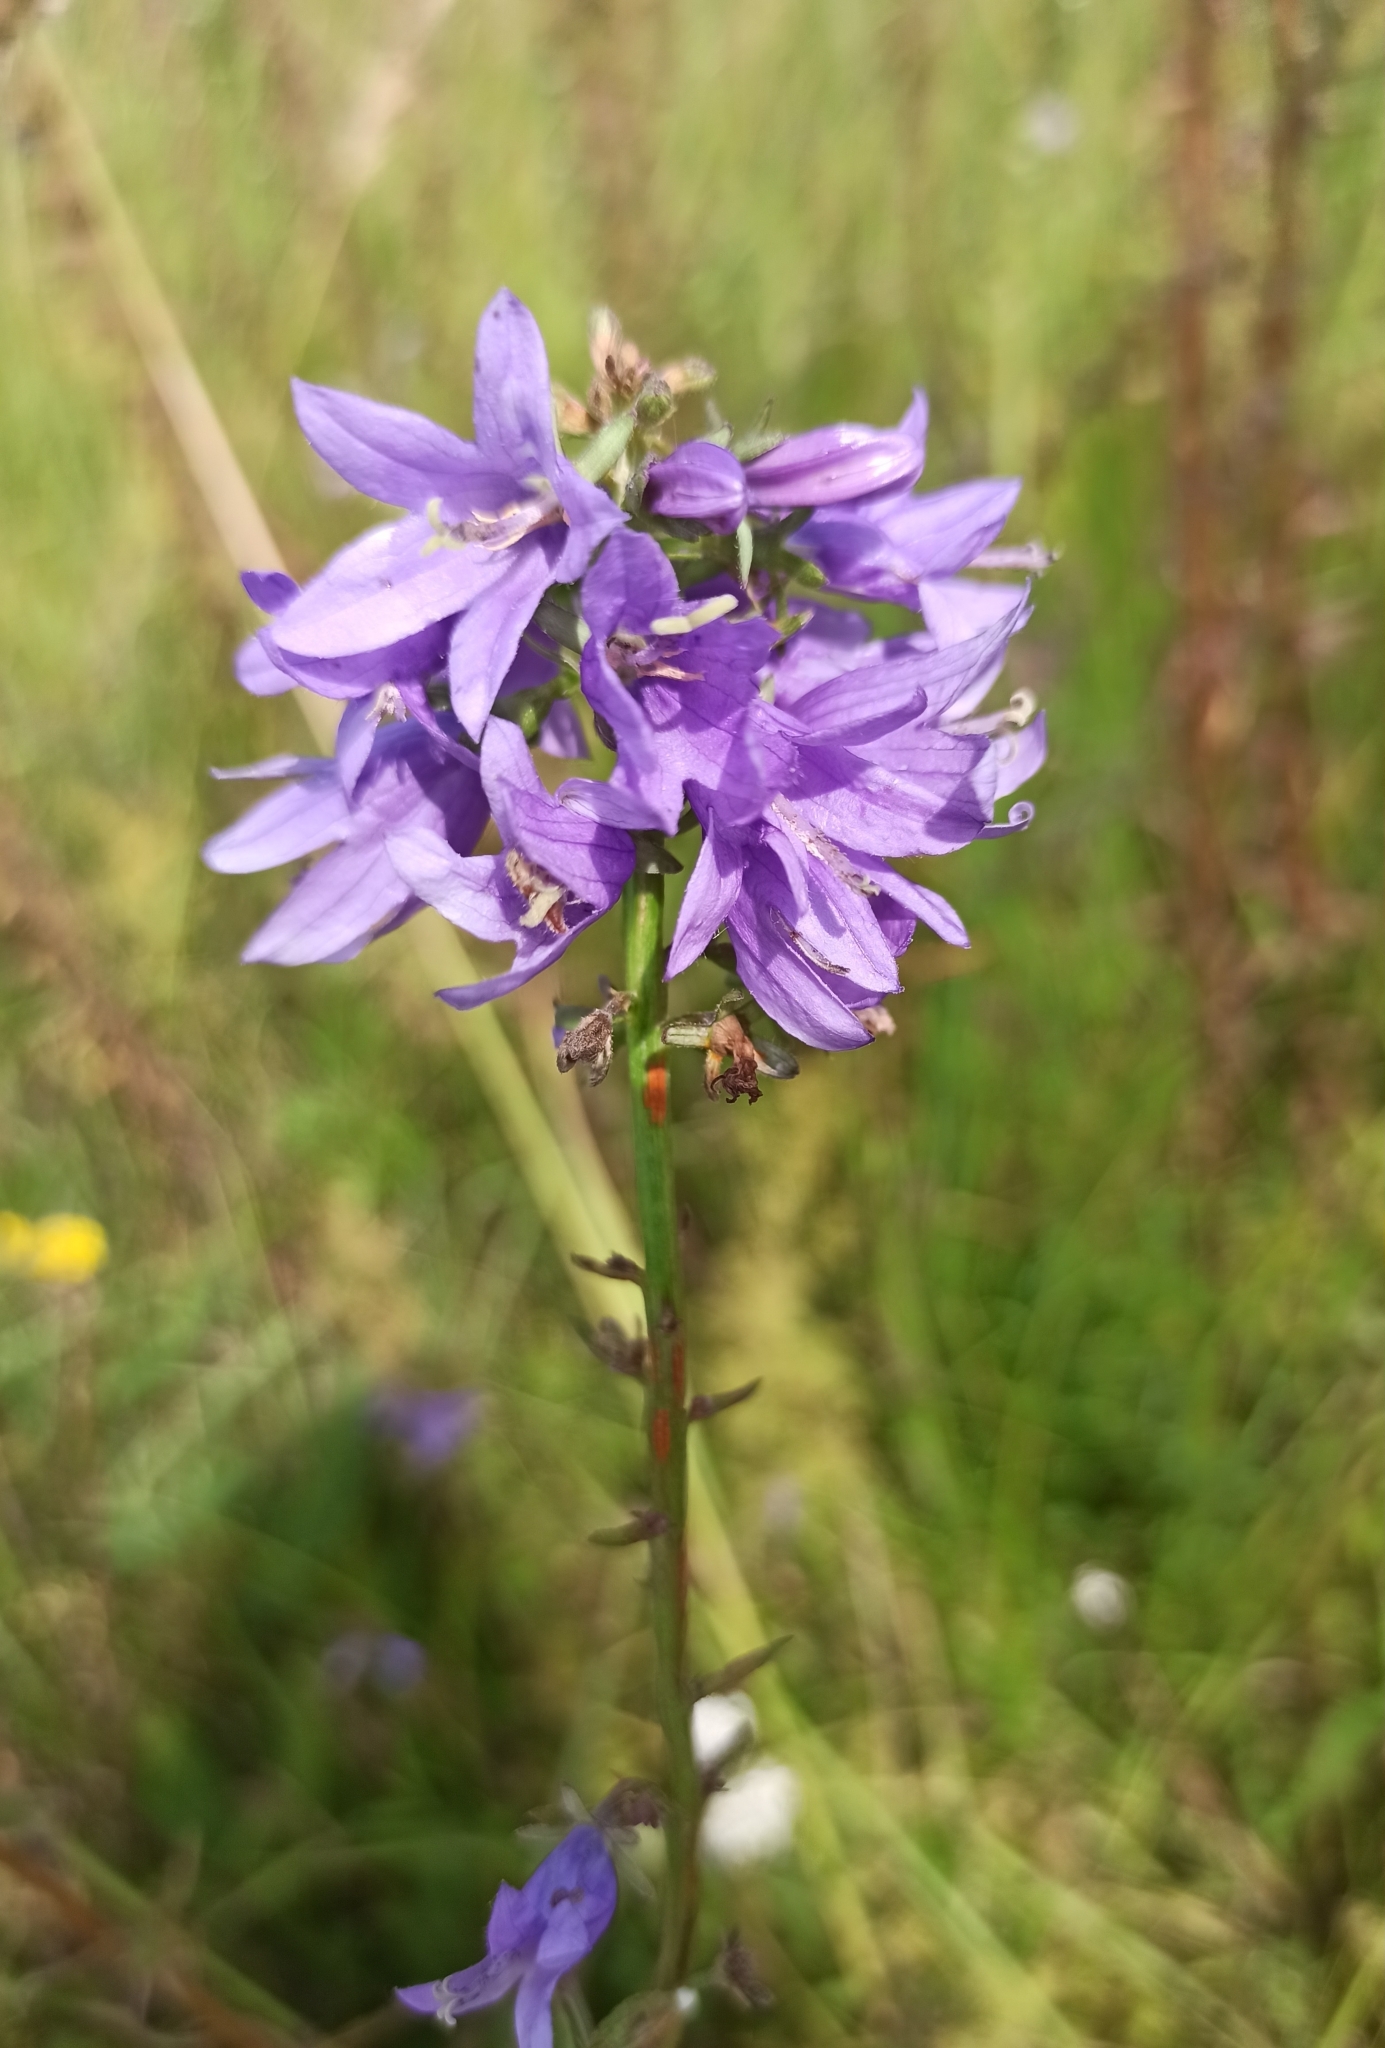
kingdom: Plantae
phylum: Tracheophyta
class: Magnoliopsida
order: Asterales
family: Campanulaceae
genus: Campanula
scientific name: Campanula glomerata
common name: Clustered bellflower
